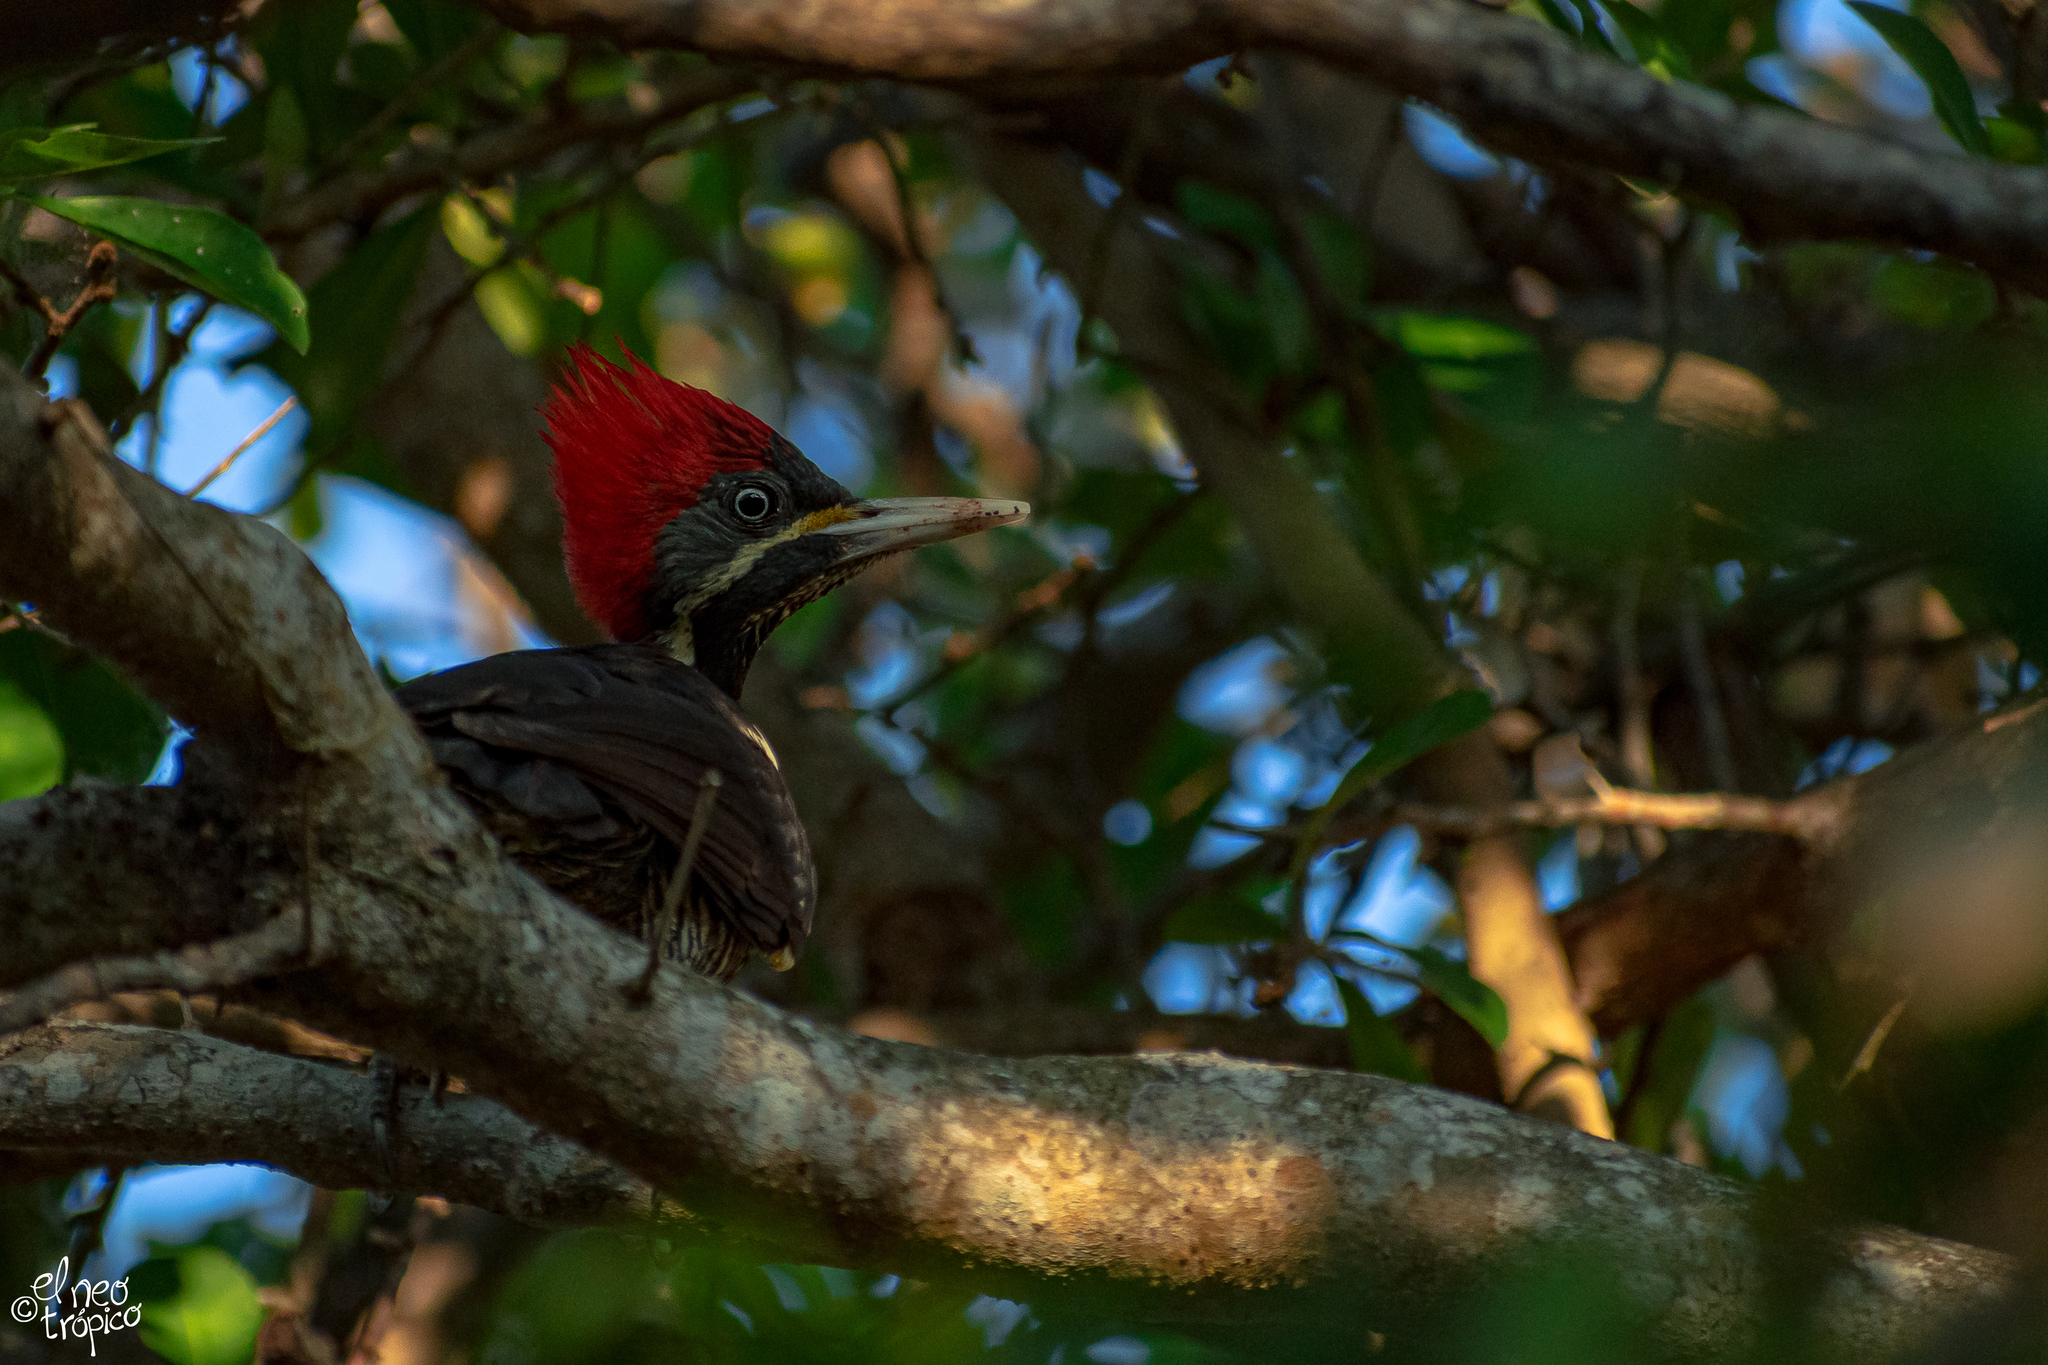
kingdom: Animalia
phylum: Chordata
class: Aves
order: Piciformes
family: Picidae
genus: Dryocopus
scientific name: Dryocopus lineatus
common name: Lineated woodpecker
